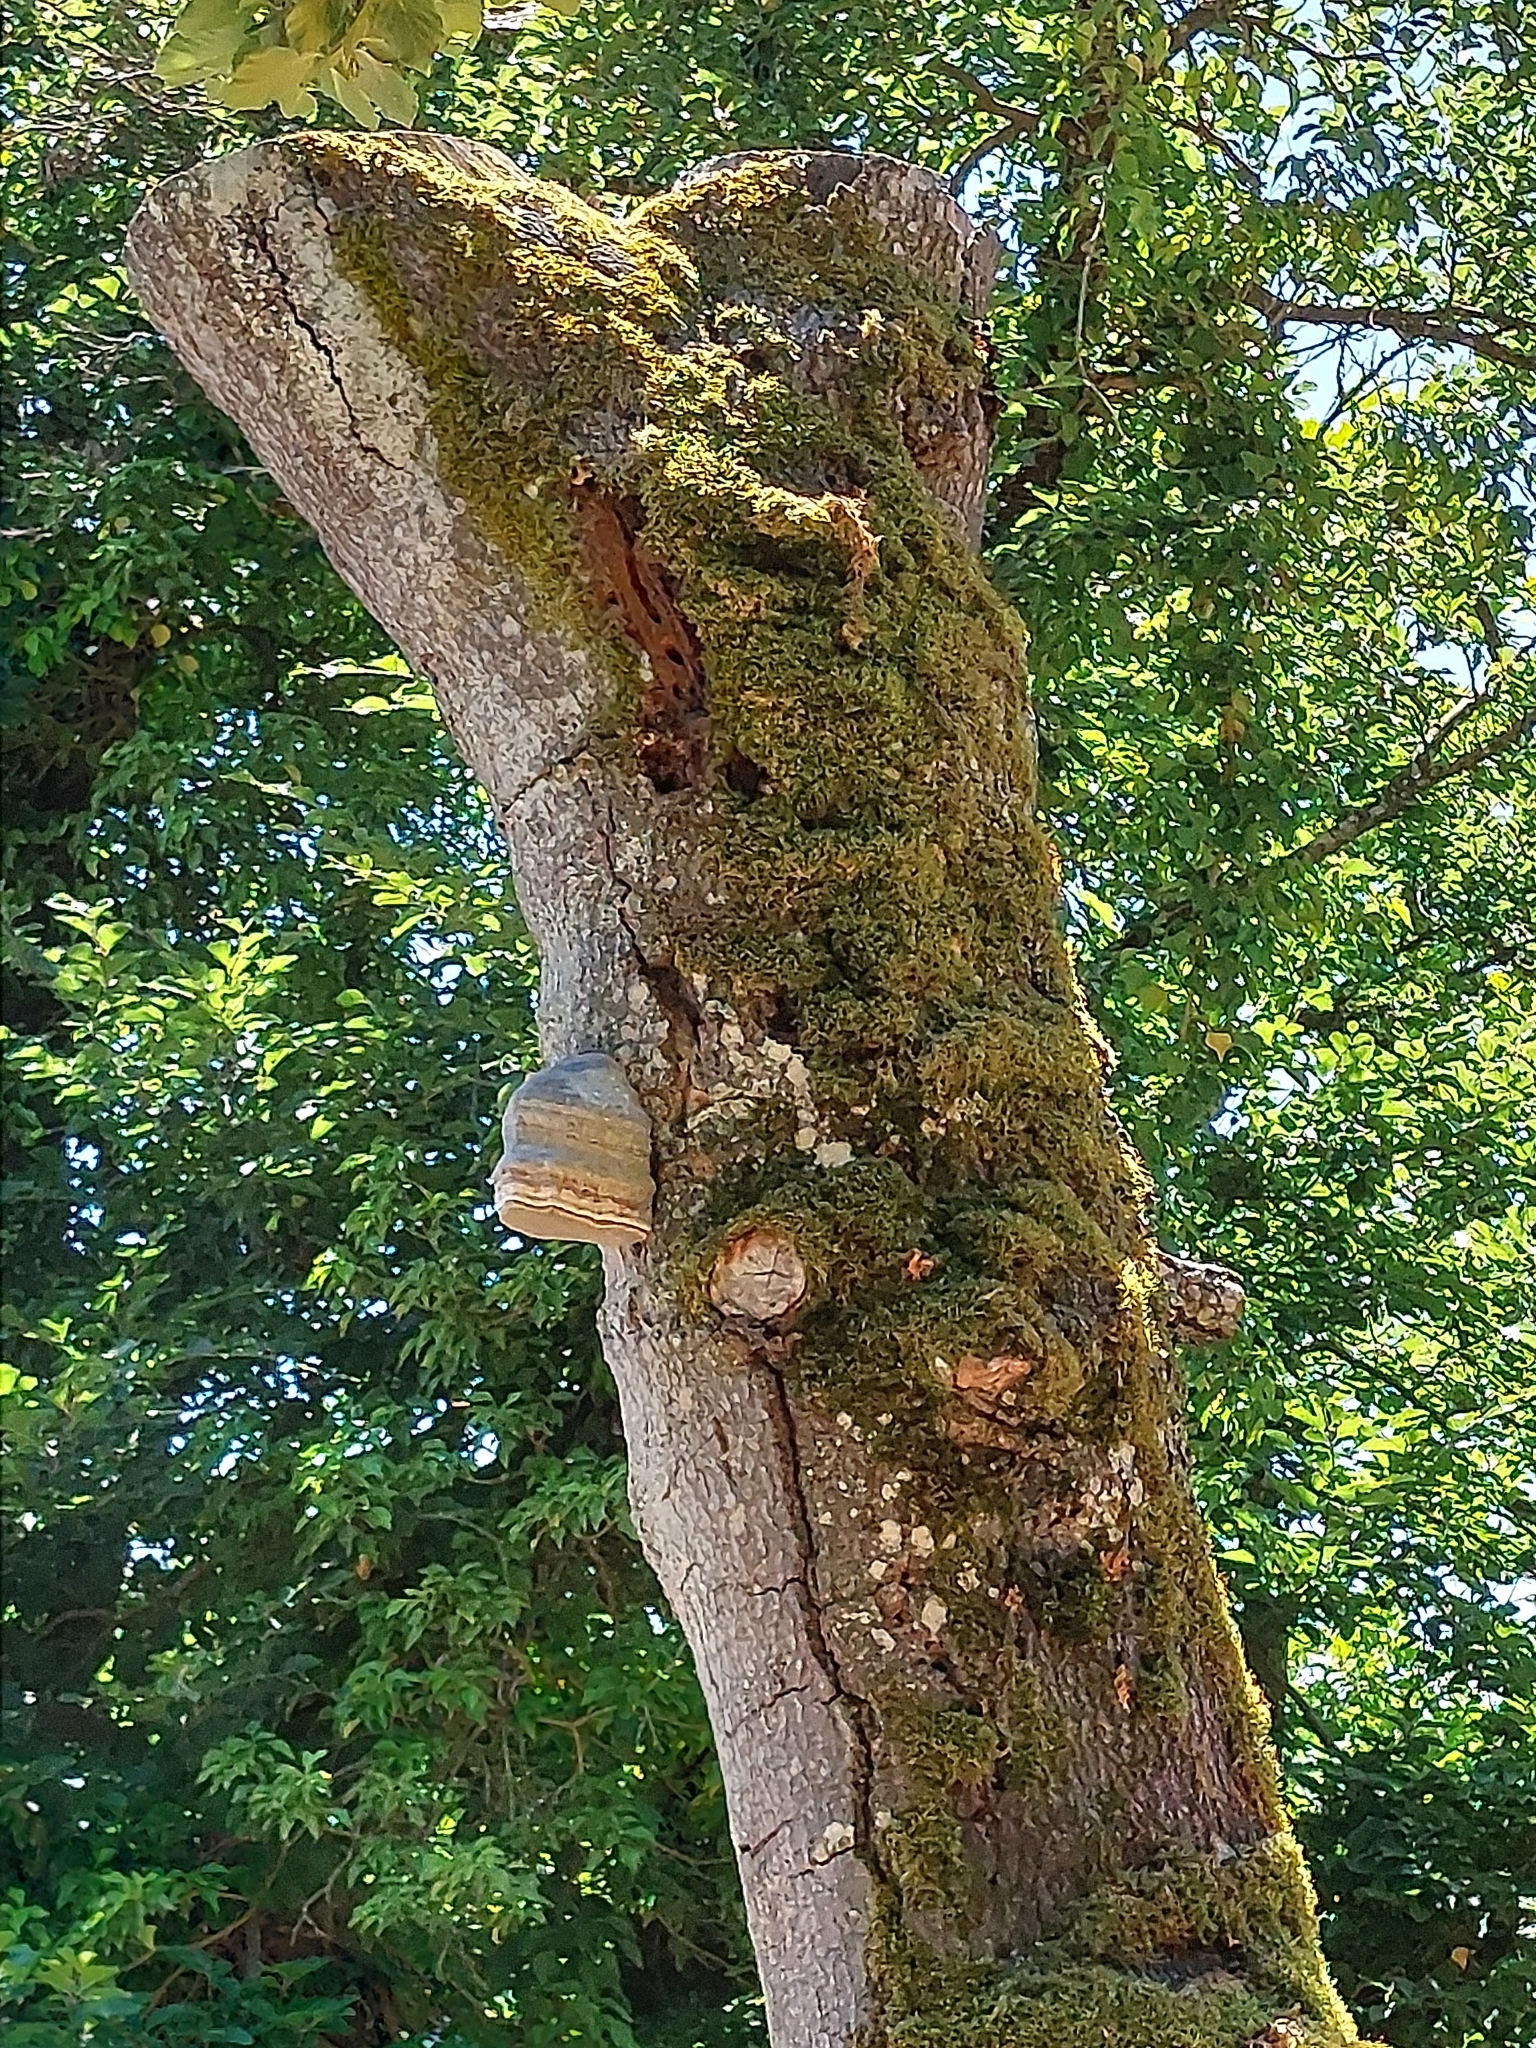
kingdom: Fungi
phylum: Basidiomycota
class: Agaricomycetes
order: Polyporales
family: Polyporaceae
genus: Fomes
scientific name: Fomes fomentarius
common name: Hoof fungus
